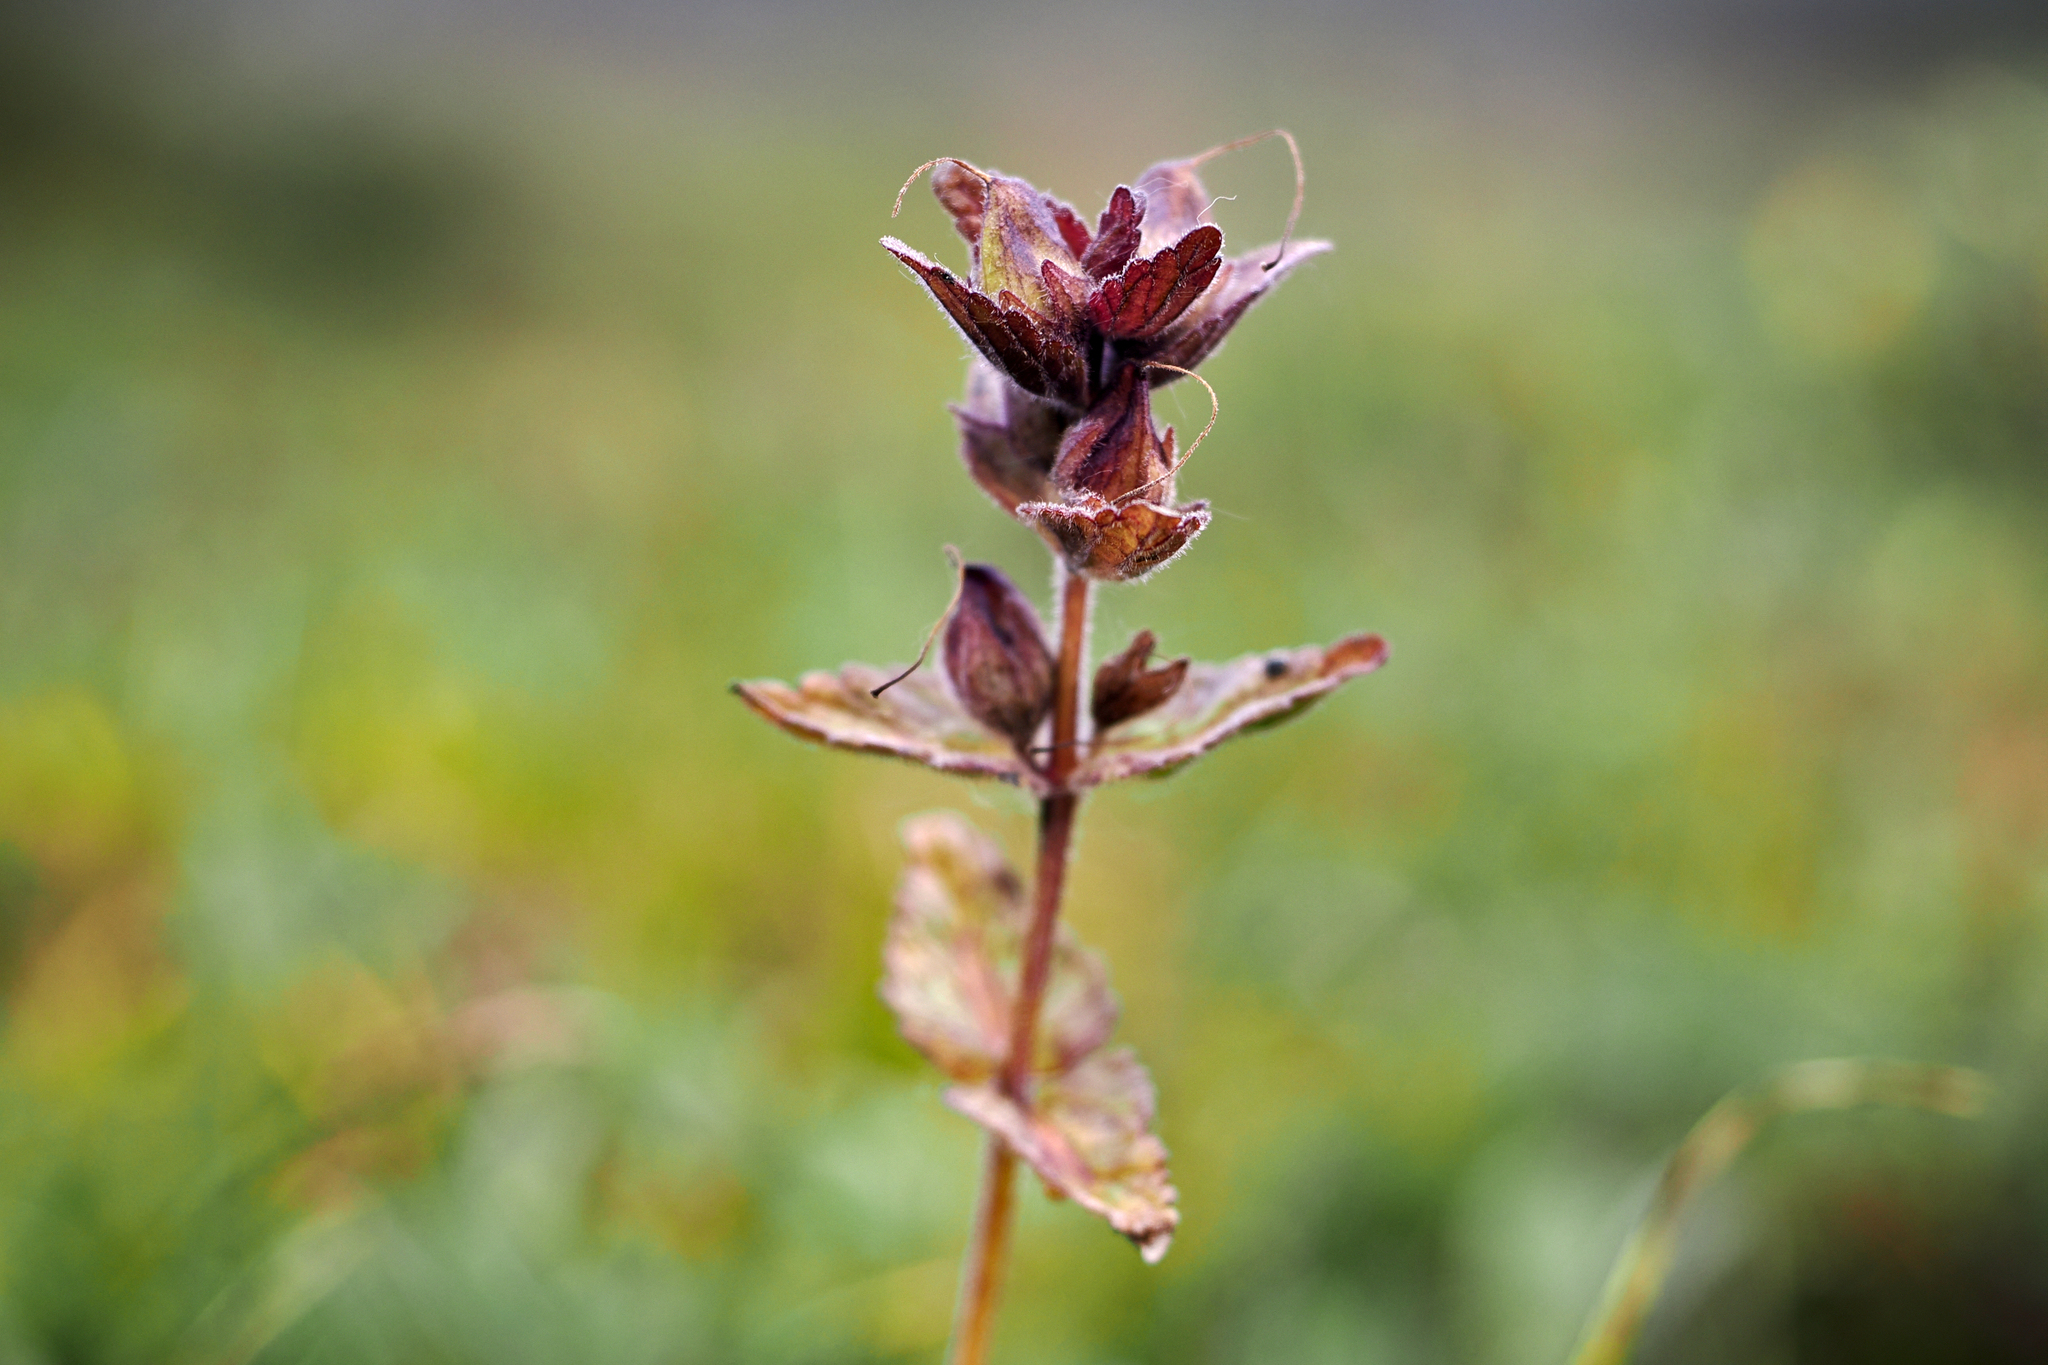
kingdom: Plantae
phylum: Tracheophyta
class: Magnoliopsida
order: Lamiales
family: Orobanchaceae
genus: Bartsia
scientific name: Bartsia alpina
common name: Alpine bartsia
